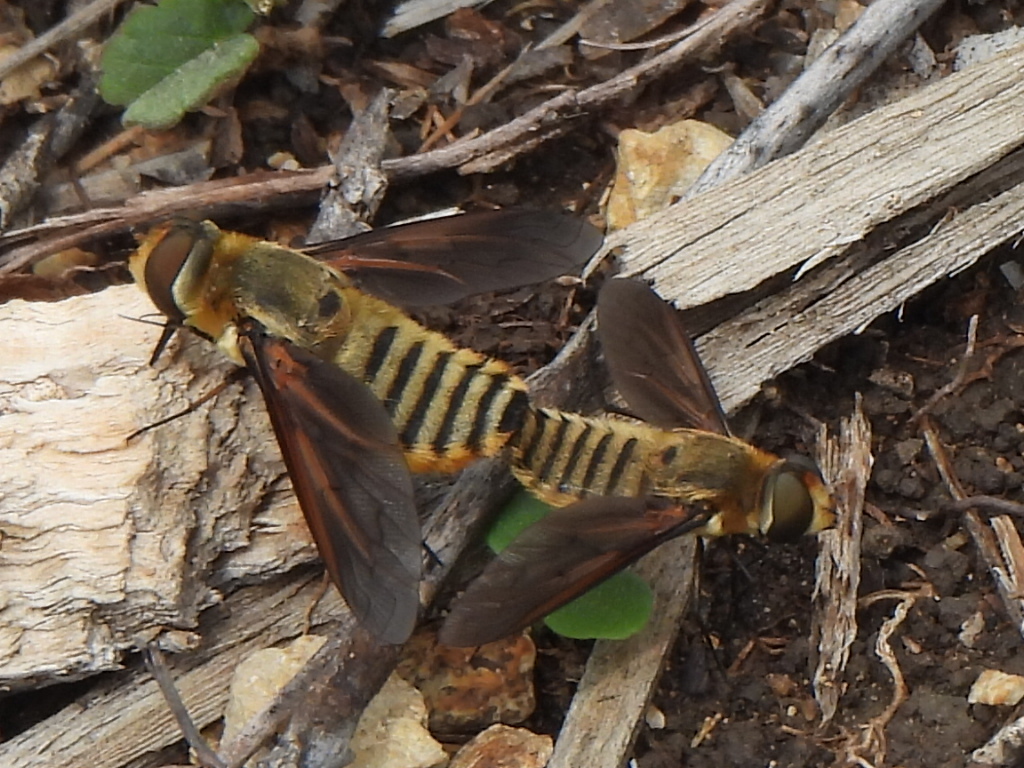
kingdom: Animalia
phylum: Arthropoda
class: Insecta
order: Diptera
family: Bombyliidae
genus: Poecilanthrax
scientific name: Poecilanthrax lucifer
